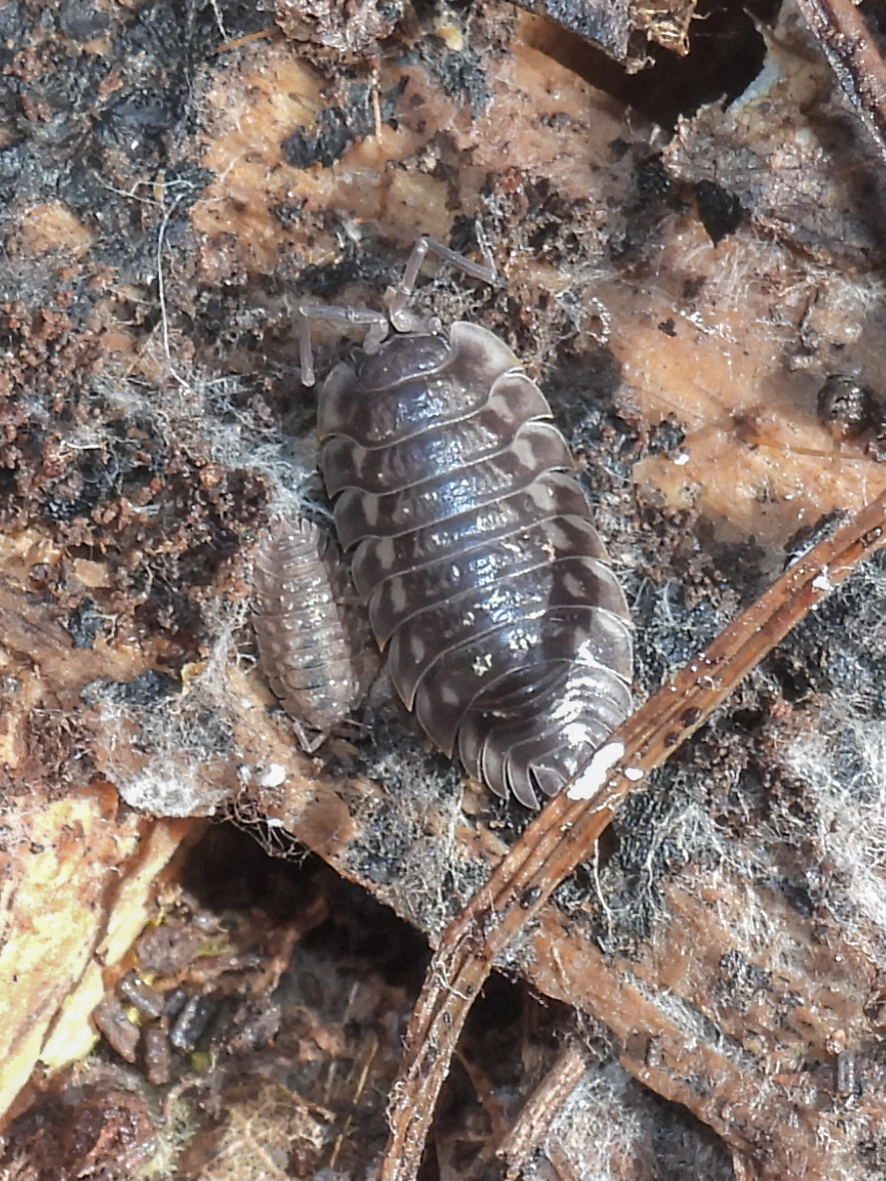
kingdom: Animalia
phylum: Arthropoda
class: Malacostraca
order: Isopoda
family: Oniscidae
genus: Oniscus
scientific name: Oniscus asellus
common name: Common shiny woodlouse
